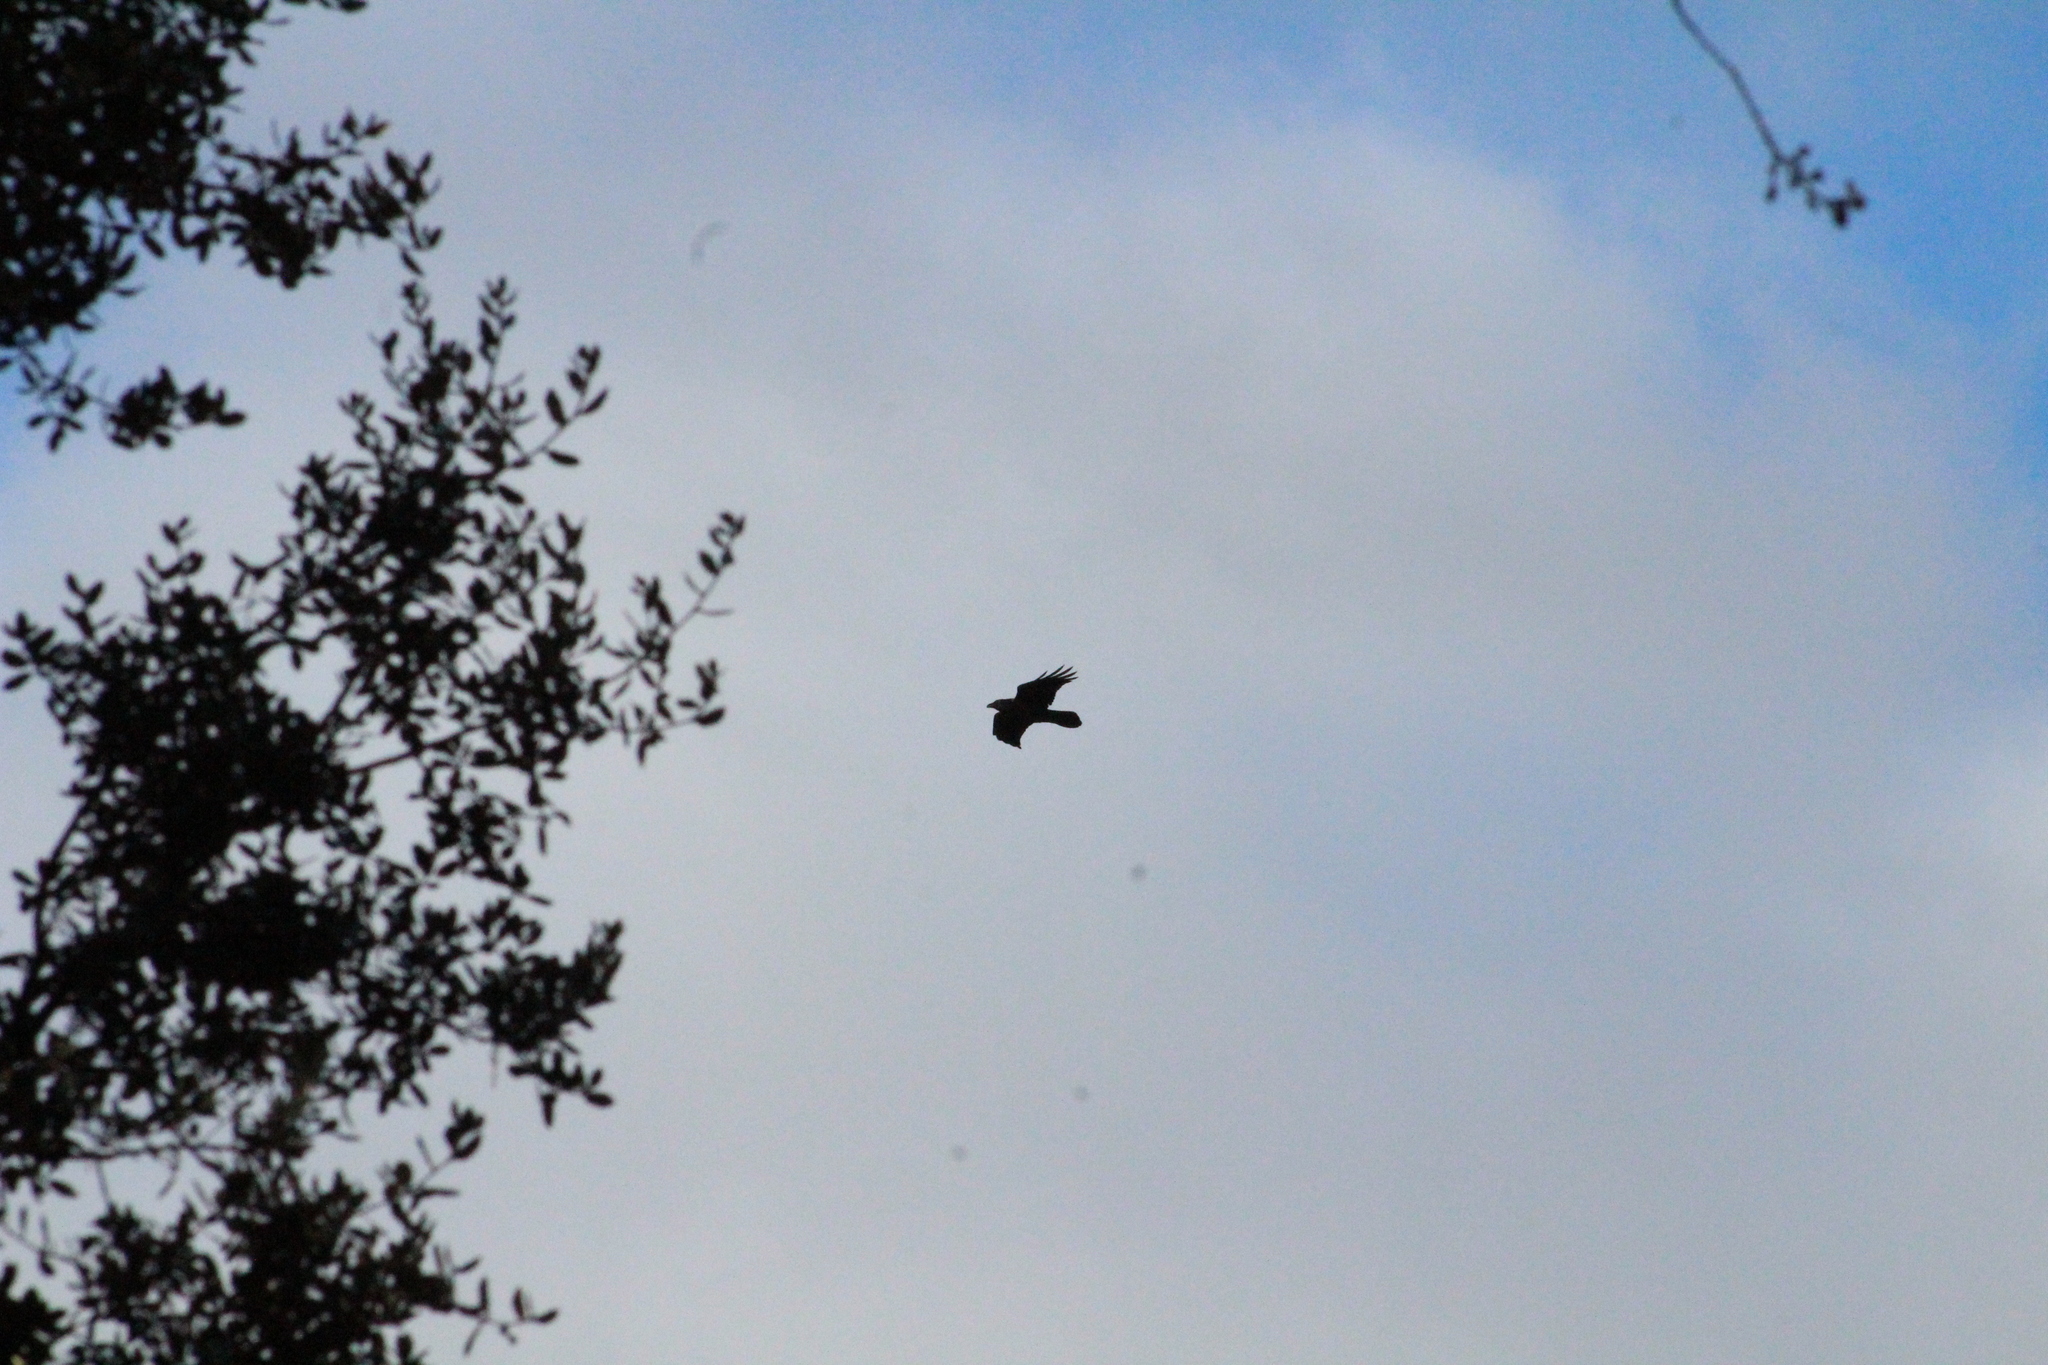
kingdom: Animalia
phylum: Chordata
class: Aves
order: Passeriformes
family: Corvidae
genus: Corvus
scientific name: Corvus corax
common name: Common raven
